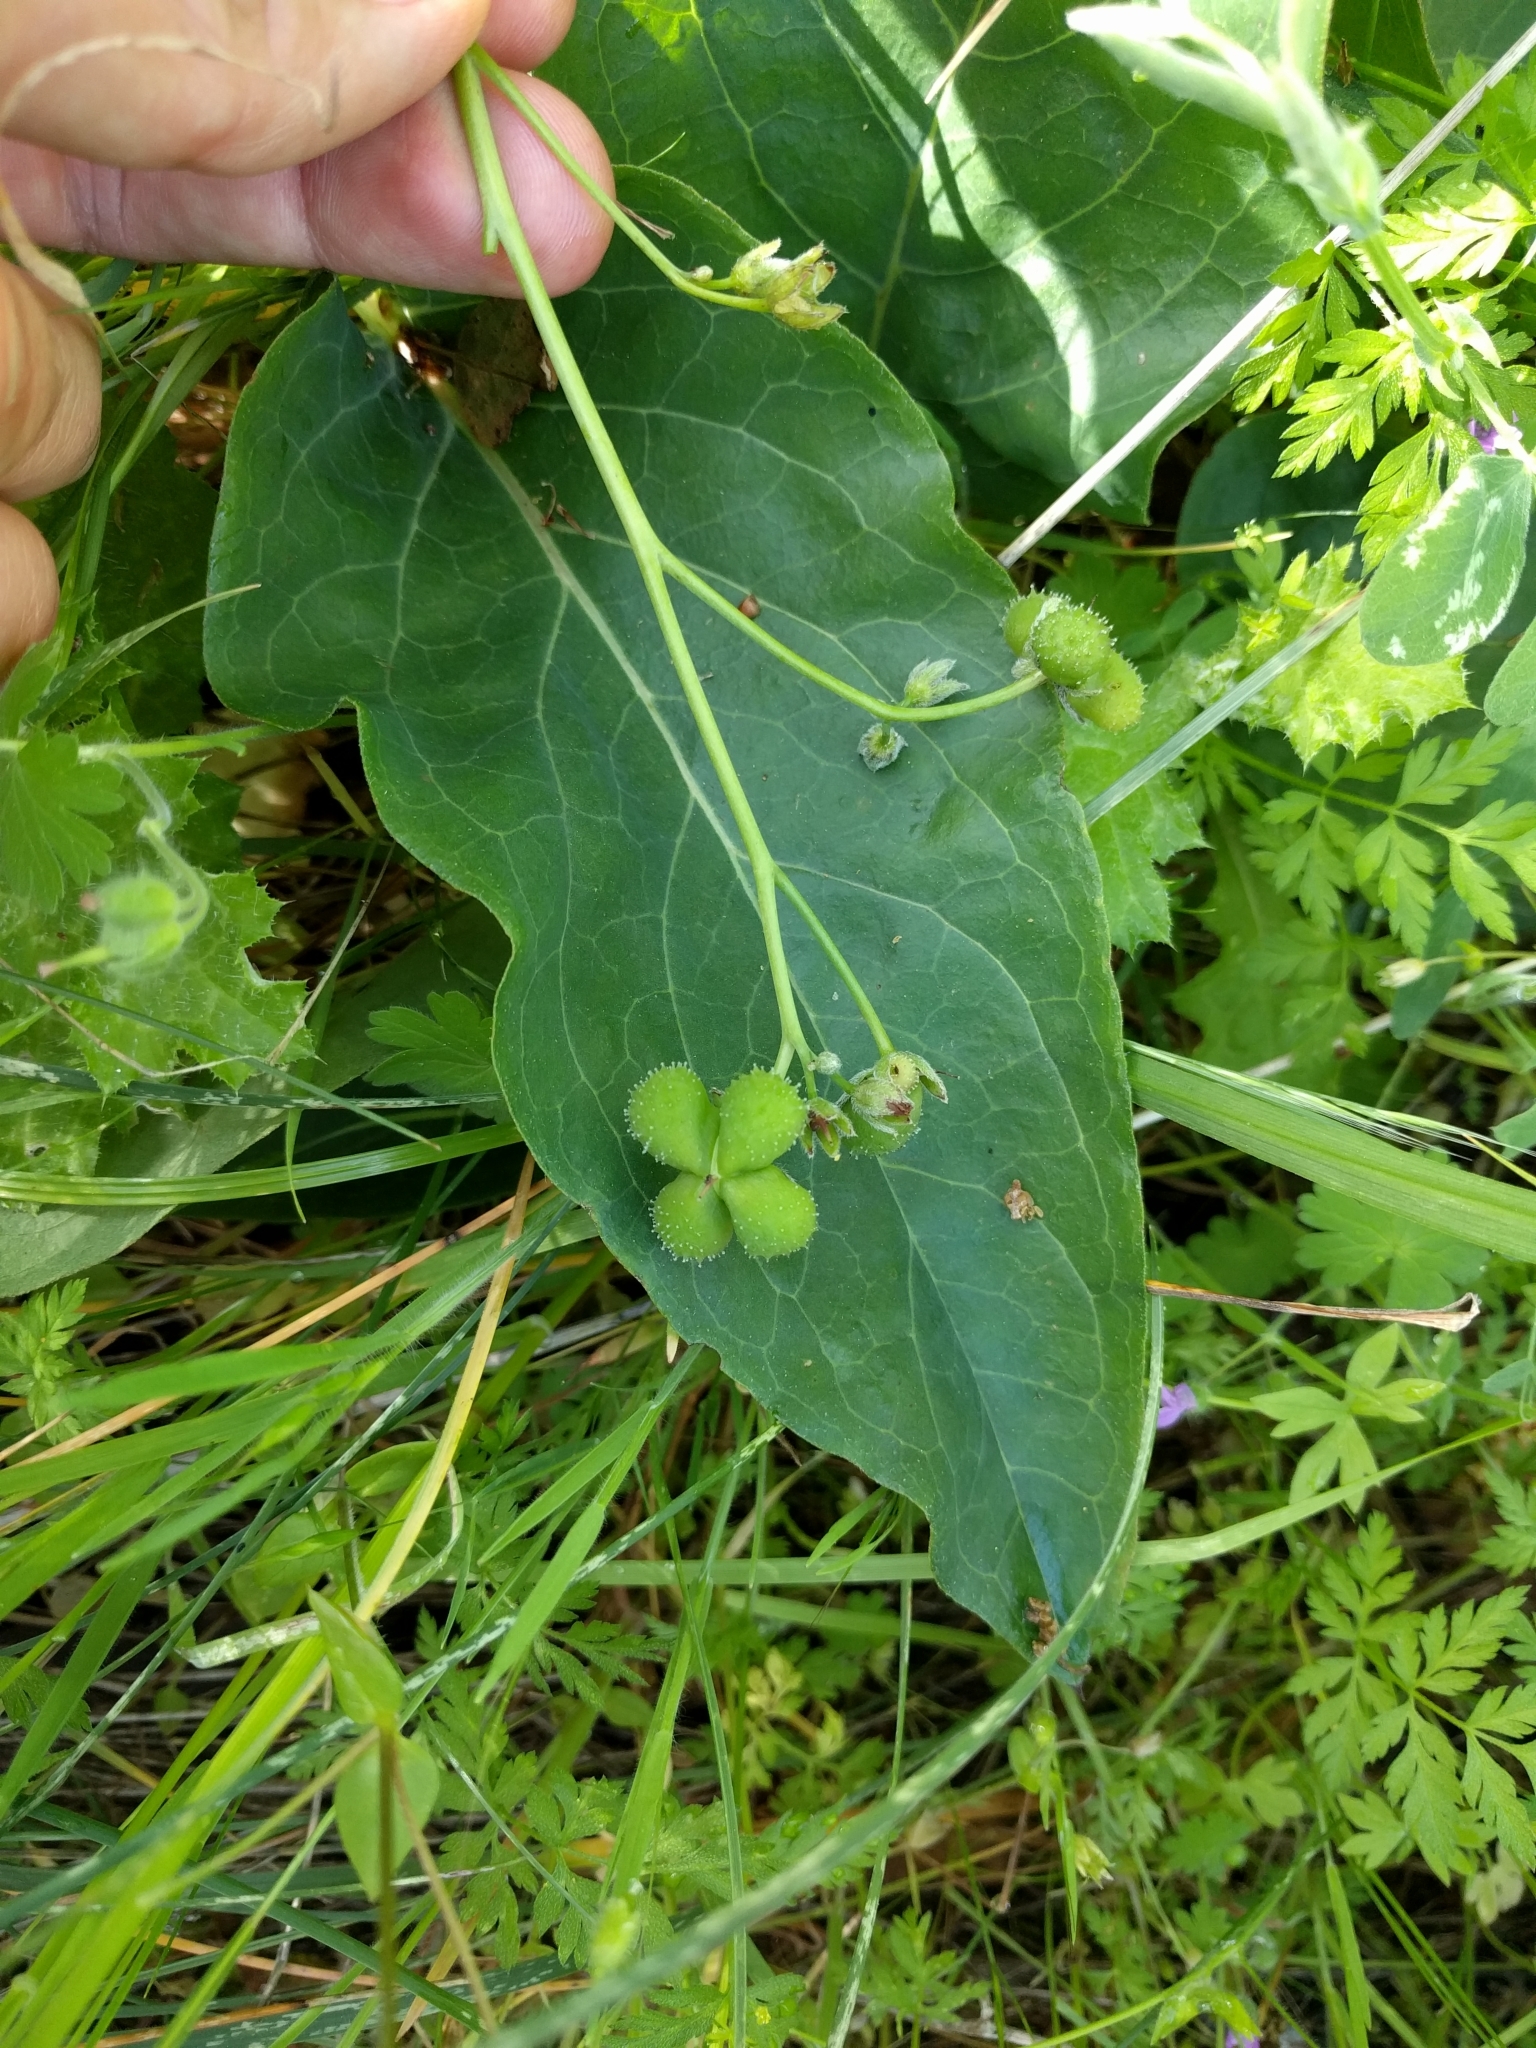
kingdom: Plantae
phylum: Tracheophyta
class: Magnoliopsida
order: Boraginales
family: Boraginaceae
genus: Adelinia
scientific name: Adelinia grande
